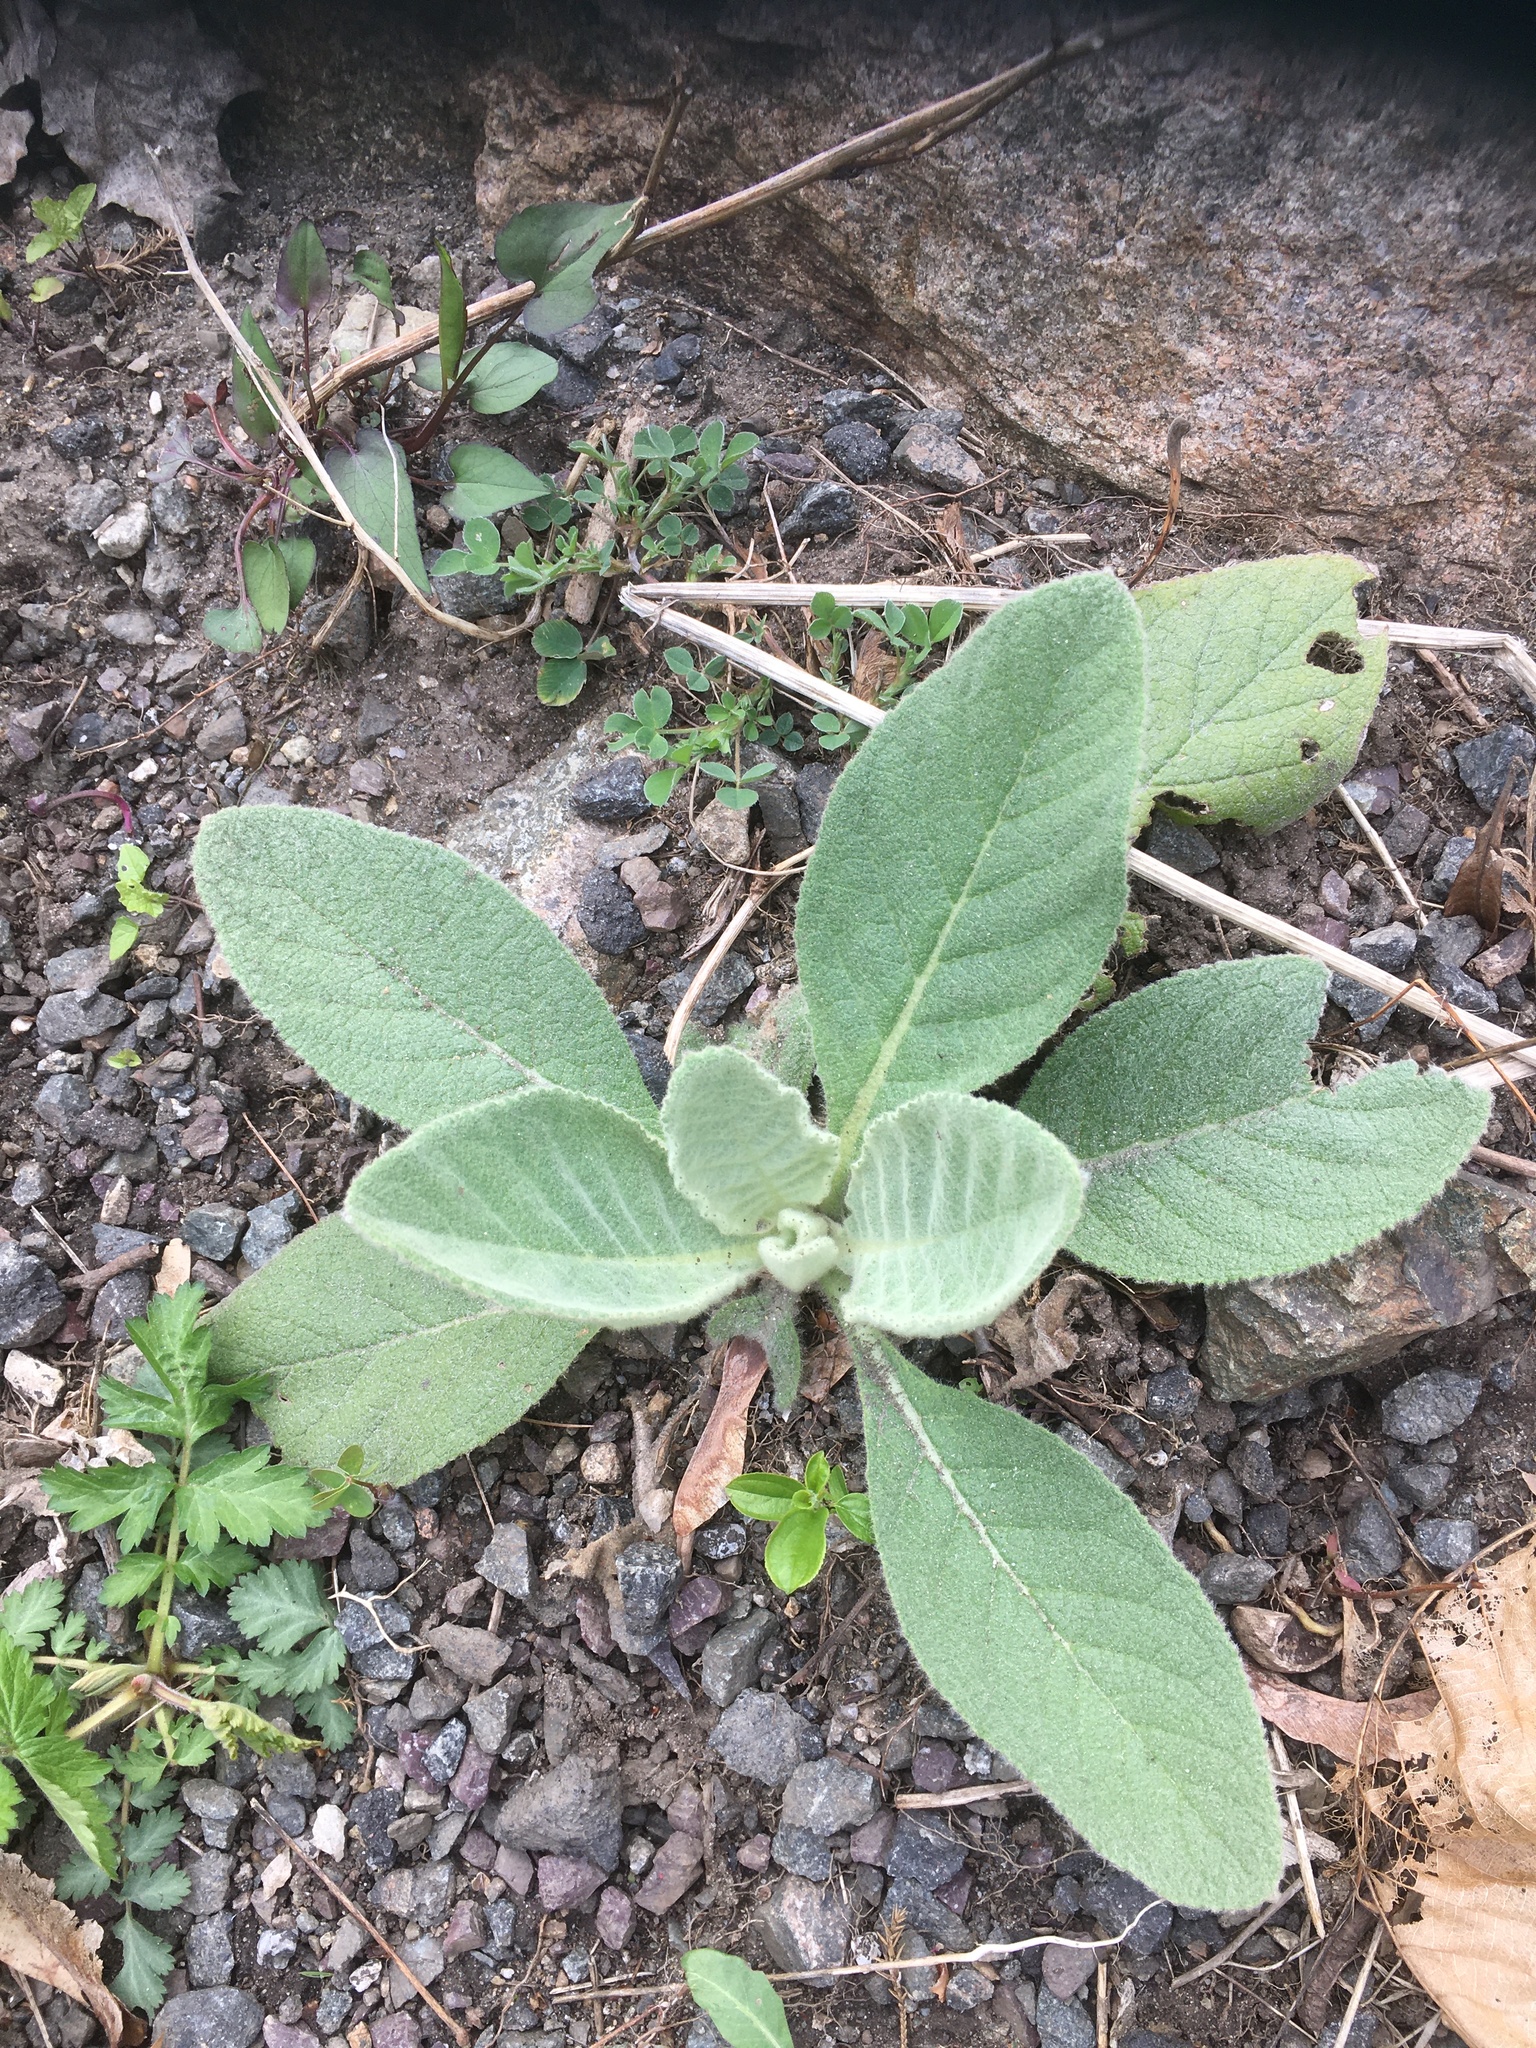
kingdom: Plantae
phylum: Tracheophyta
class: Magnoliopsida
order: Lamiales
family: Scrophulariaceae
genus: Verbascum
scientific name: Verbascum thapsus
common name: Common mullein
